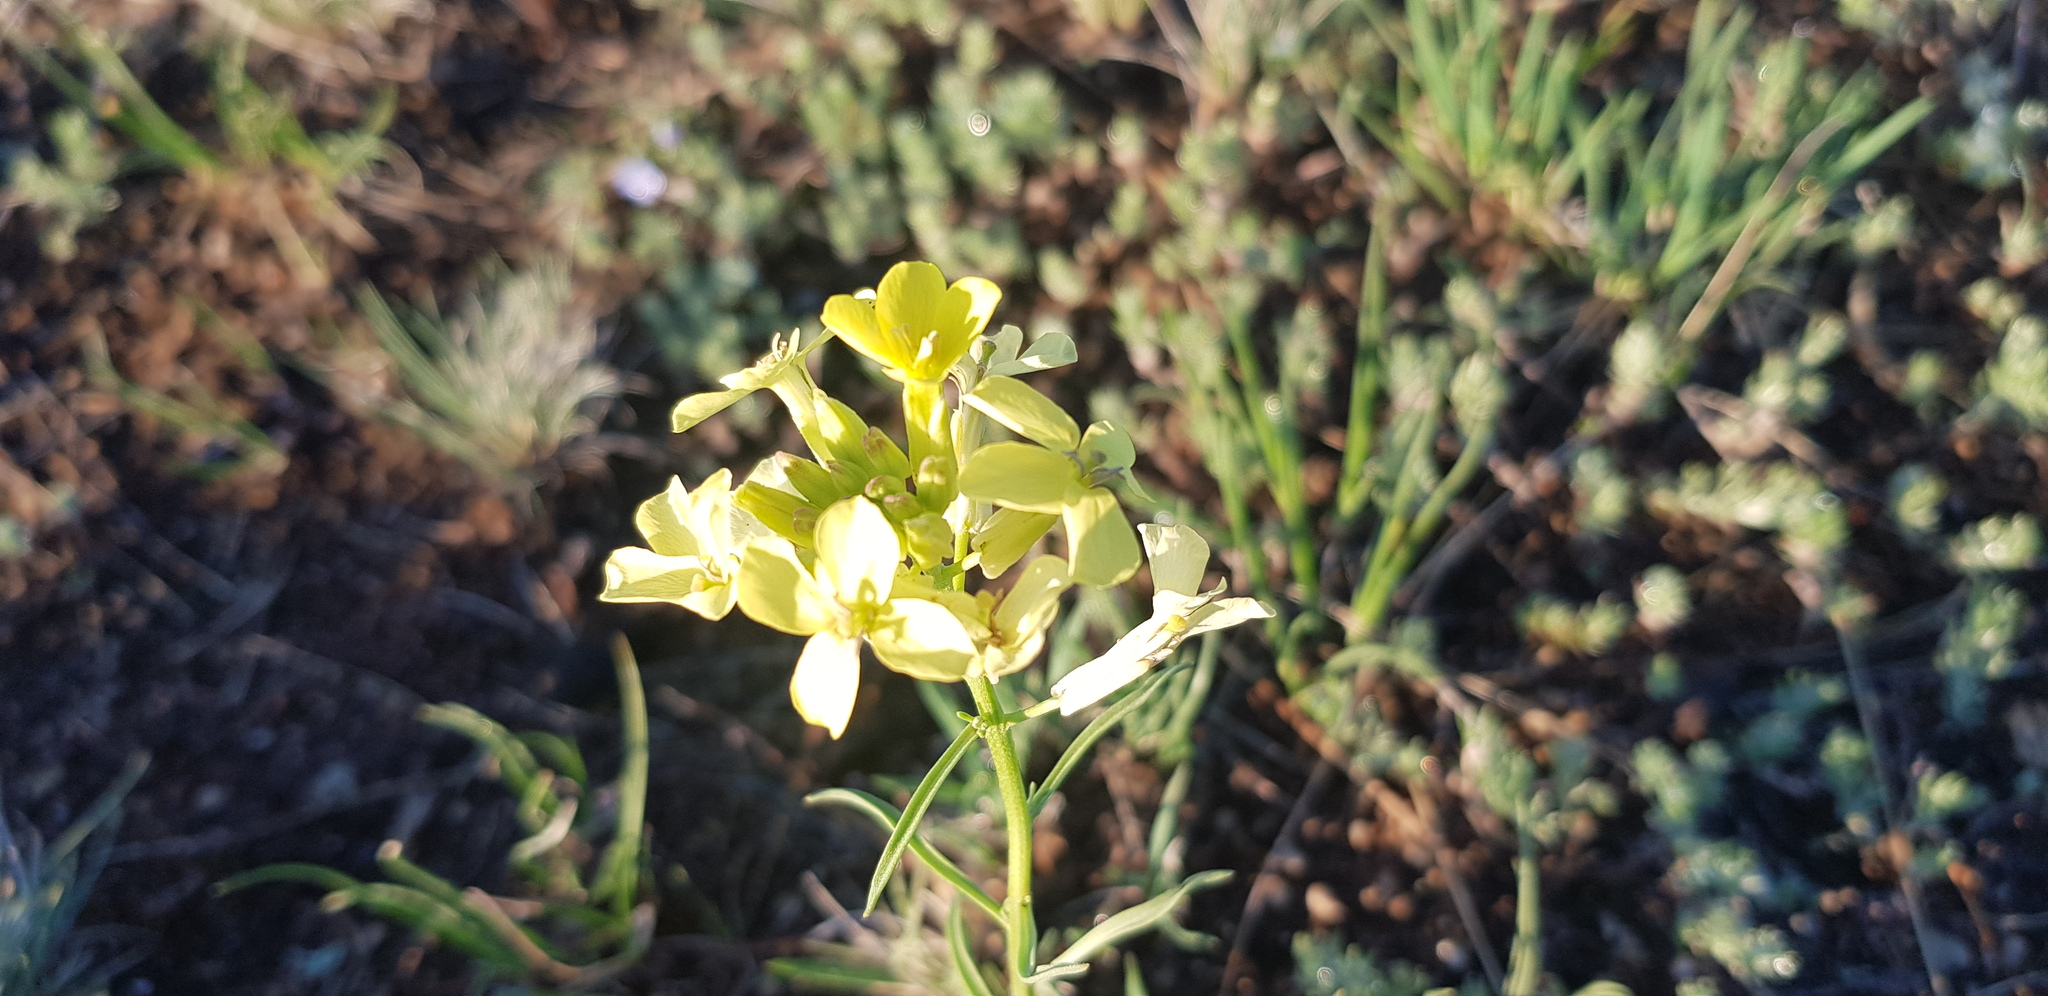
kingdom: Plantae
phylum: Tracheophyta
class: Magnoliopsida
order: Brassicales
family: Brassicaceae
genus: Erysimum
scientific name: Erysimum flavum
